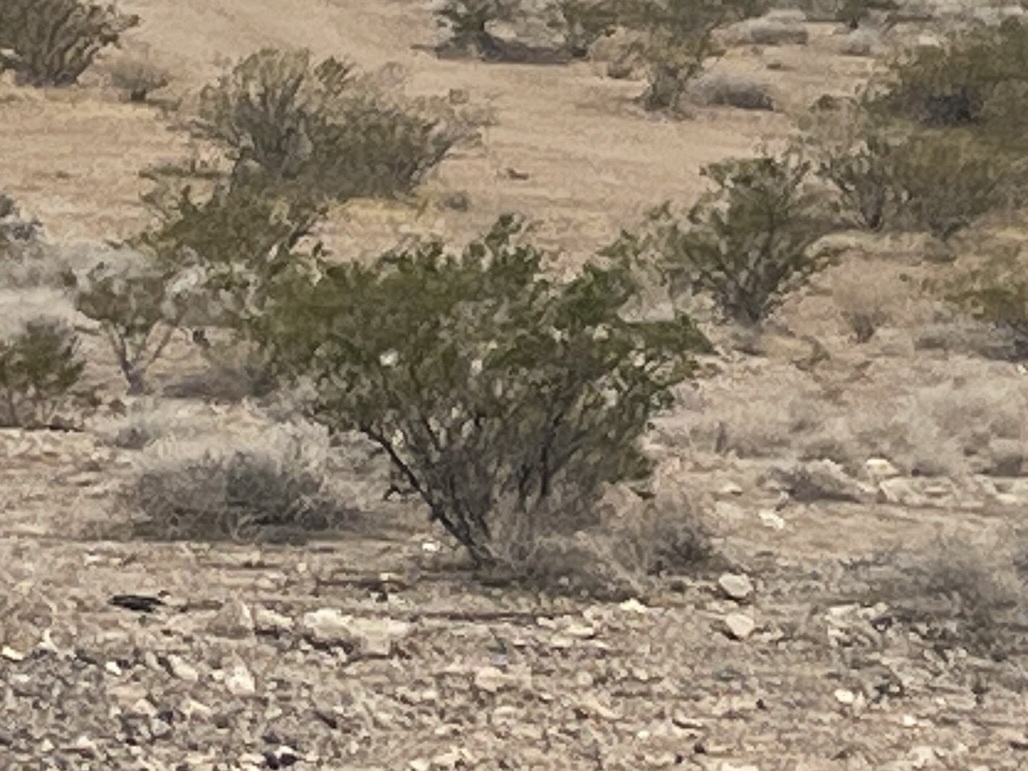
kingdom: Plantae
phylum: Tracheophyta
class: Magnoliopsida
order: Zygophyllales
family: Zygophyllaceae
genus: Larrea
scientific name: Larrea tridentata
